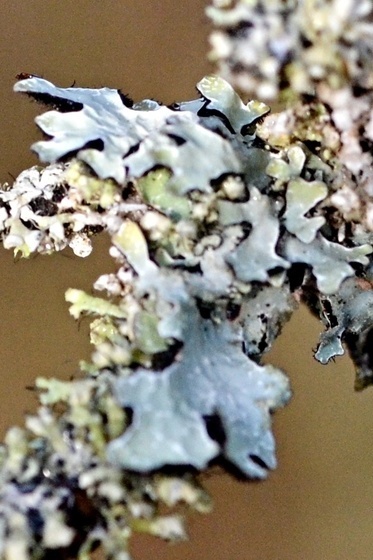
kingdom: Fungi
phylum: Ascomycota
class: Lecanoromycetes
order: Lecanorales
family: Parmeliaceae
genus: Parmelia
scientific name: Parmelia sulcata
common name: Netted shield lichen
